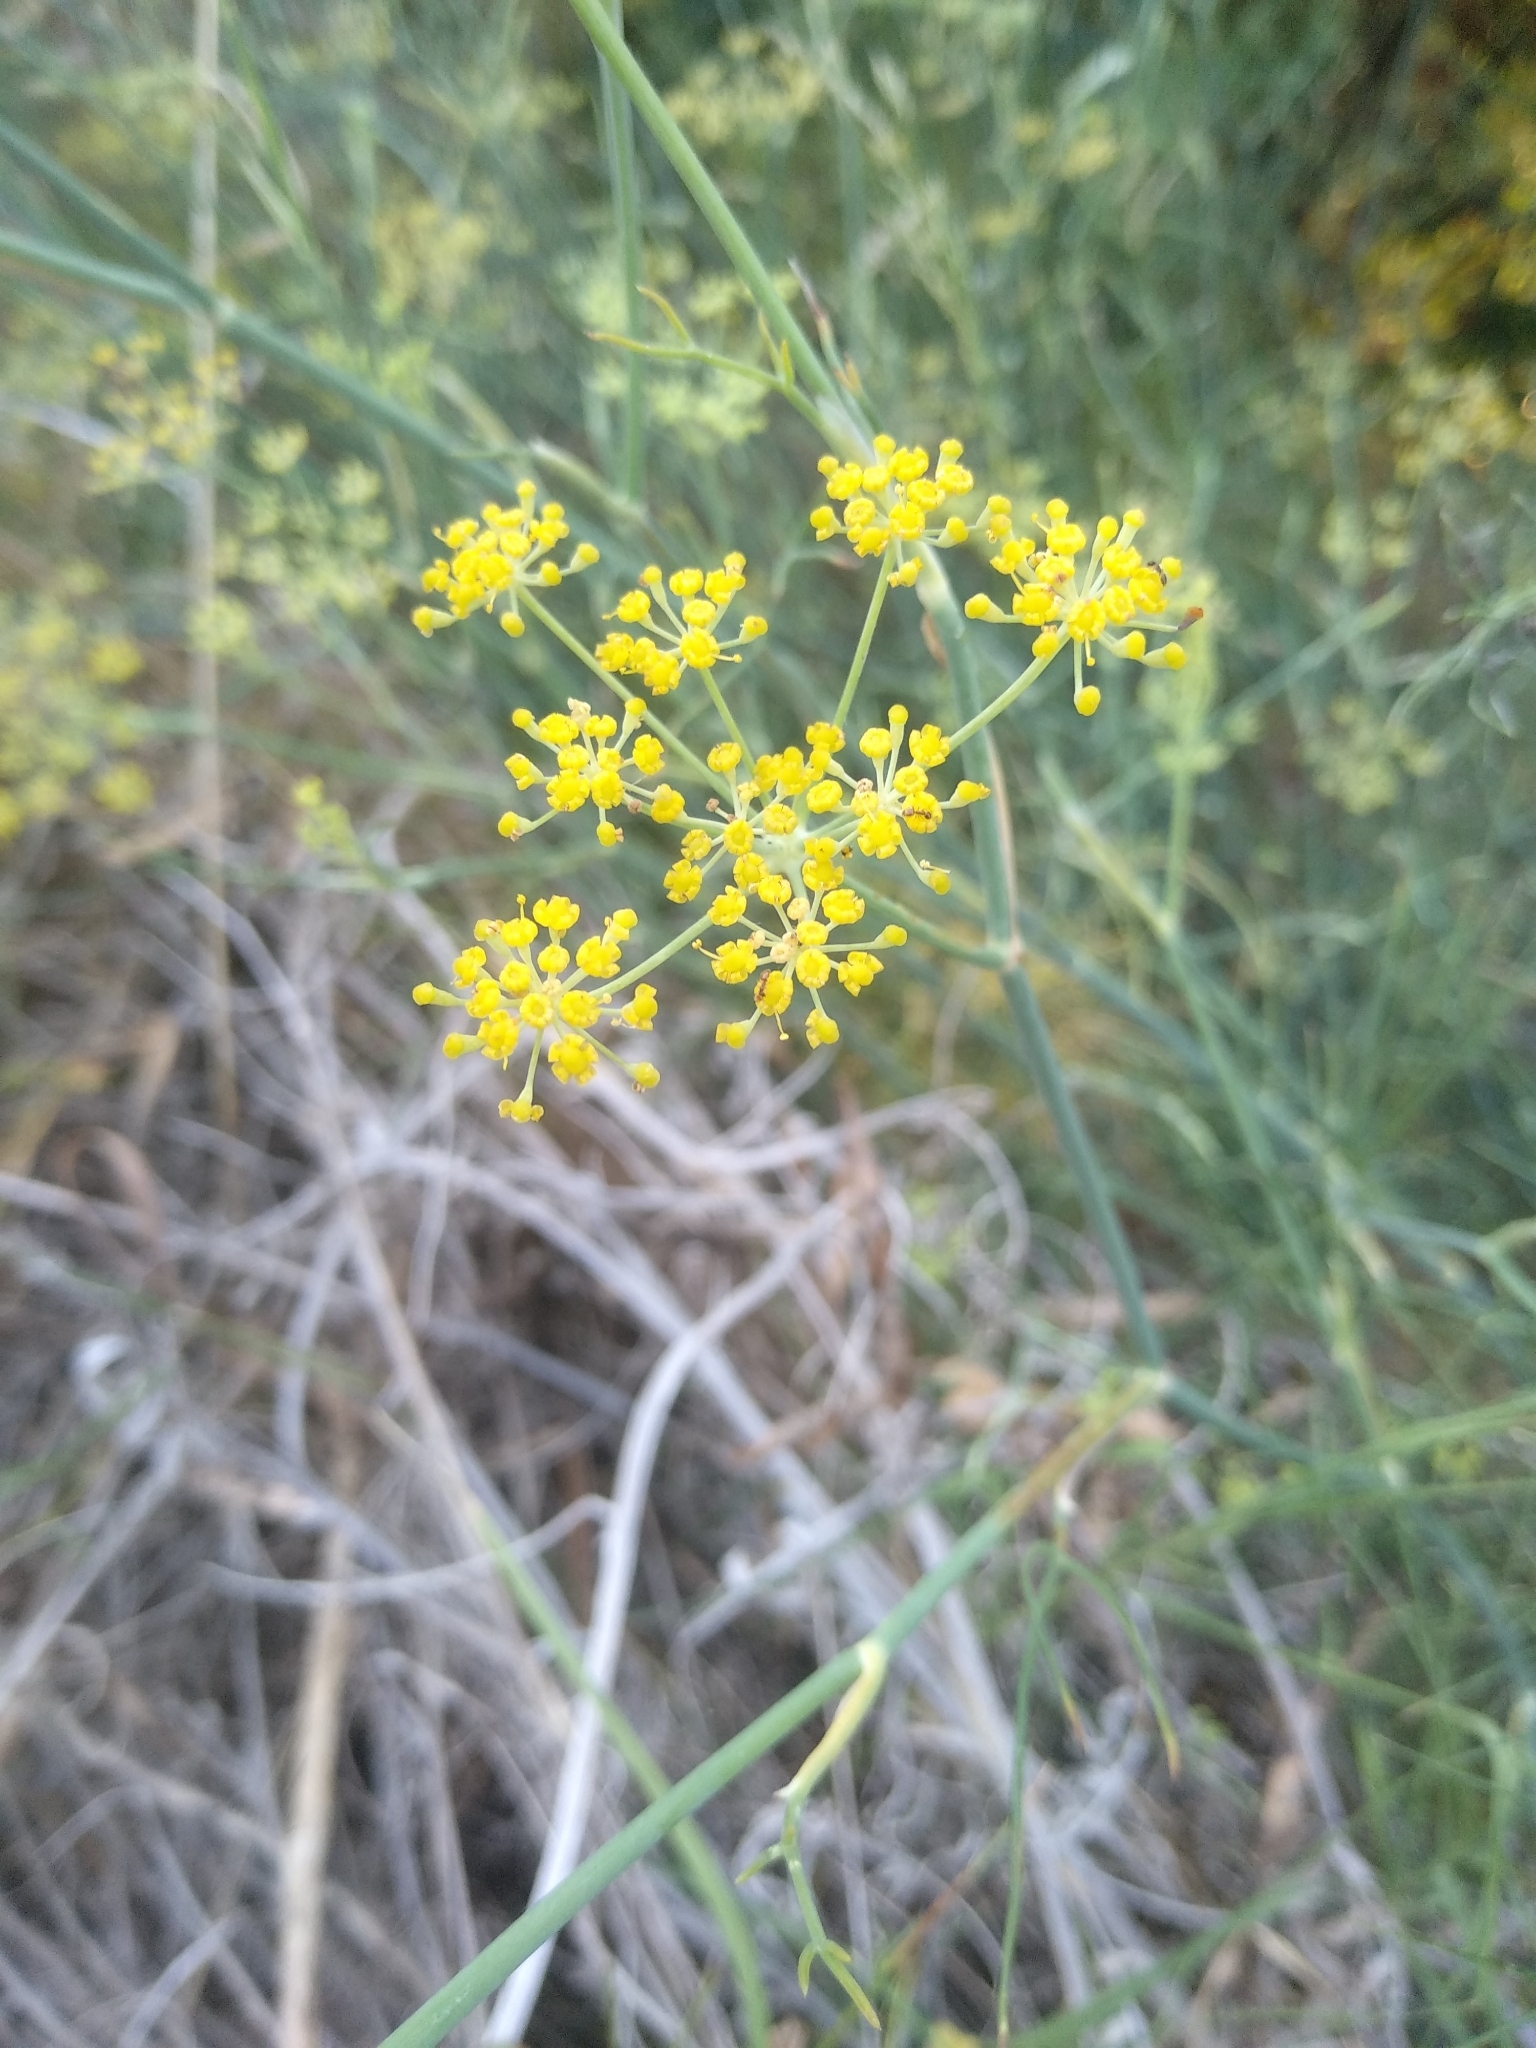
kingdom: Plantae
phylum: Tracheophyta
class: Magnoliopsida
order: Apiales
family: Apiaceae
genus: Foeniculum
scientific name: Foeniculum vulgare
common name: Fennel
